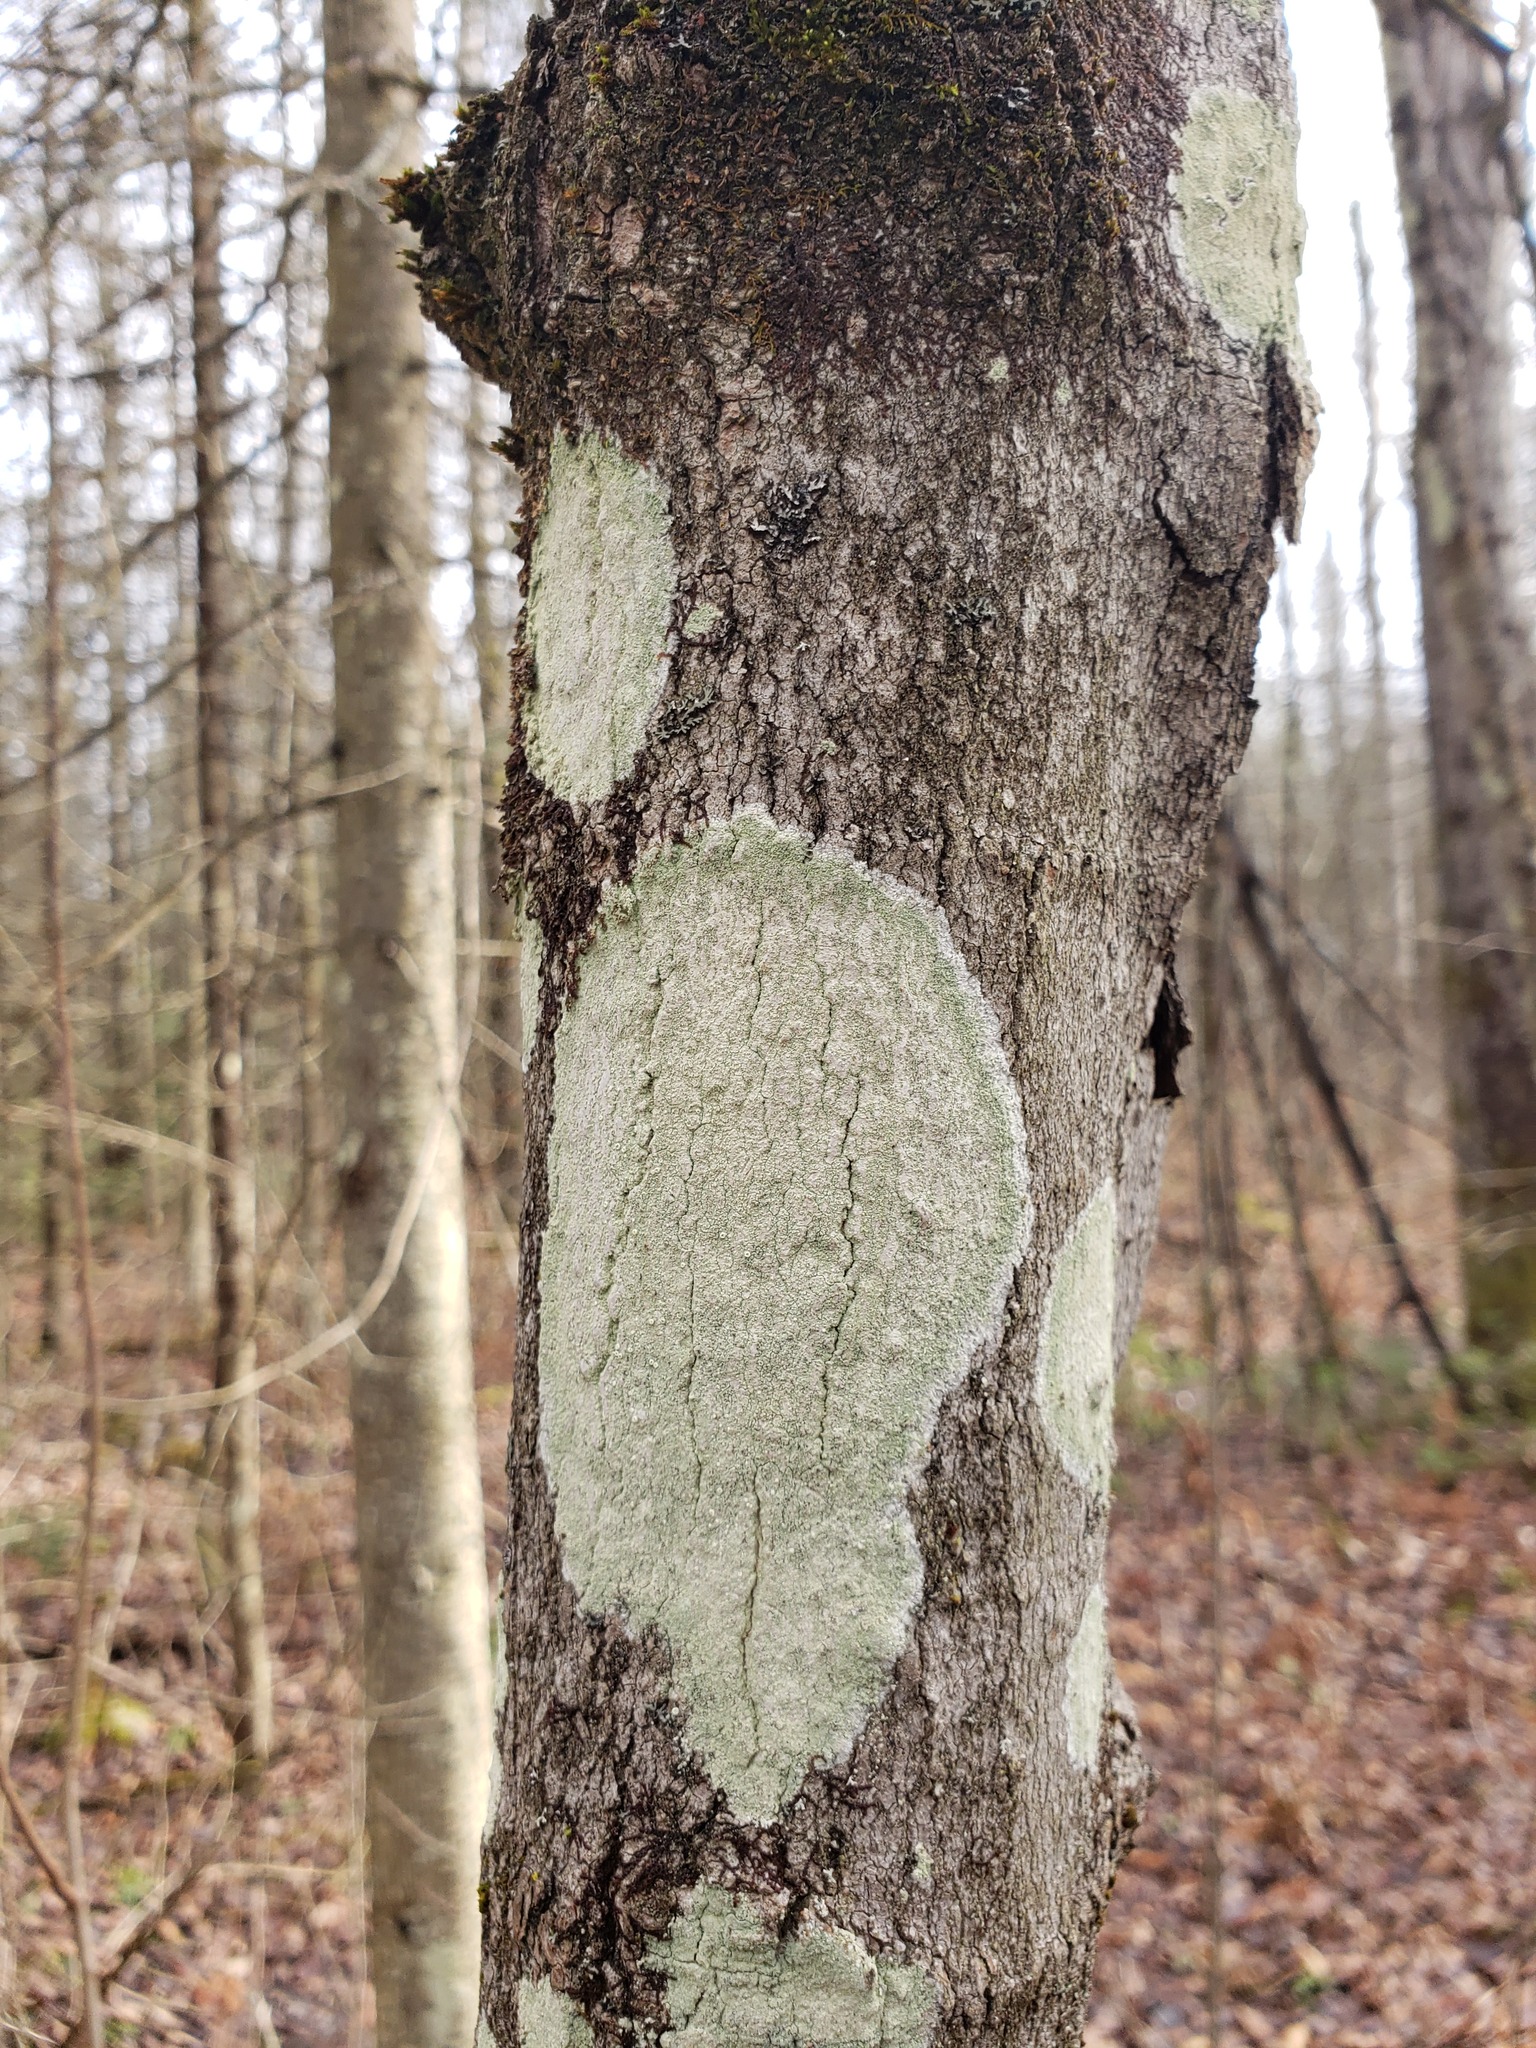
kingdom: Fungi
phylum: Ascomycota
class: Lecanoromycetes
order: Pertusariales
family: Pertusariaceae
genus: Verseghya
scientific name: Verseghya thysanophora
